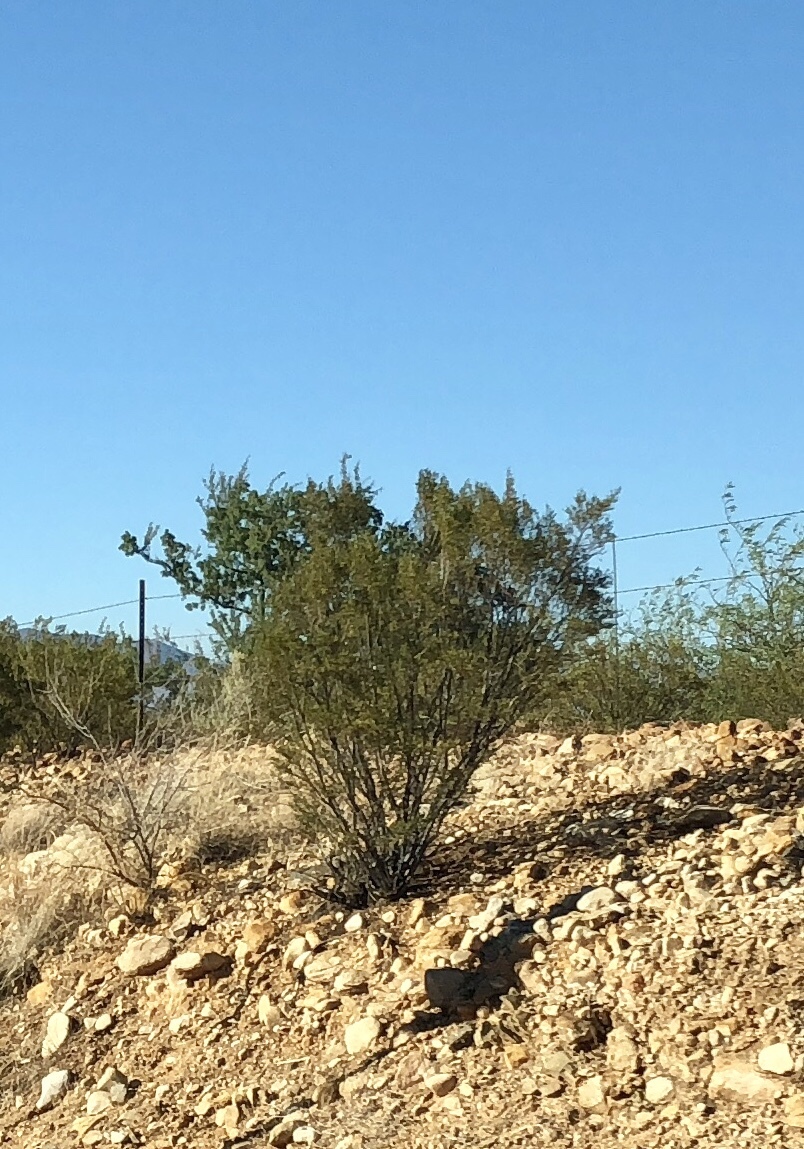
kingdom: Plantae
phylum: Tracheophyta
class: Magnoliopsida
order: Zygophyllales
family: Zygophyllaceae
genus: Larrea
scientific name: Larrea tridentata
